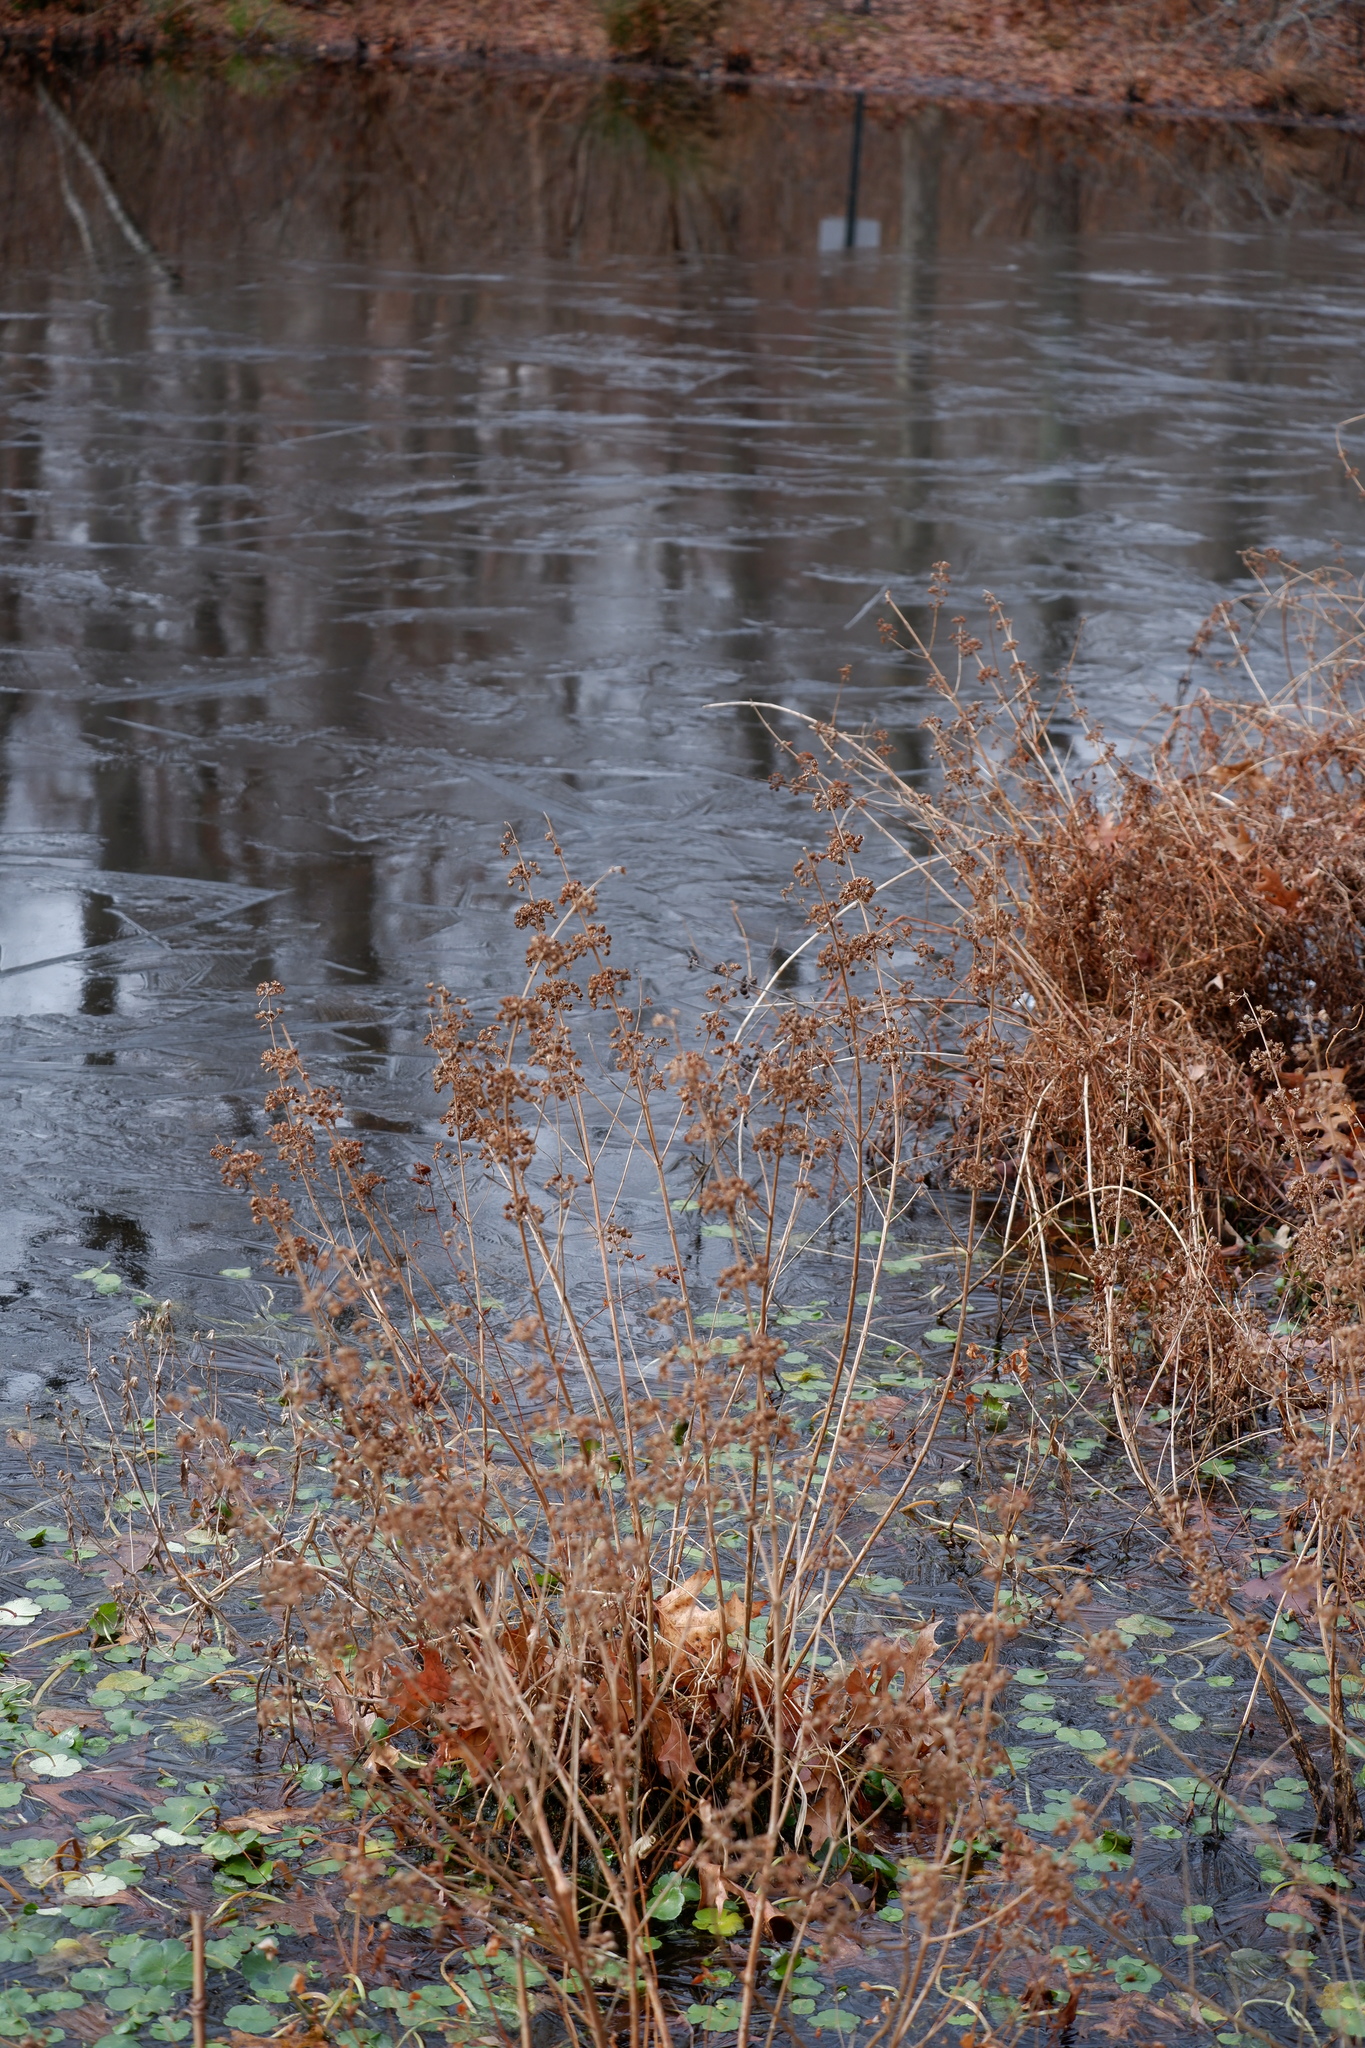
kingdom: Plantae
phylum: Tracheophyta
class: Magnoliopsida
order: Myrtales
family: Lythraceae
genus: Decodon
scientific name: Decodon verticillatus
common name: Hairy swamp loosestrife
